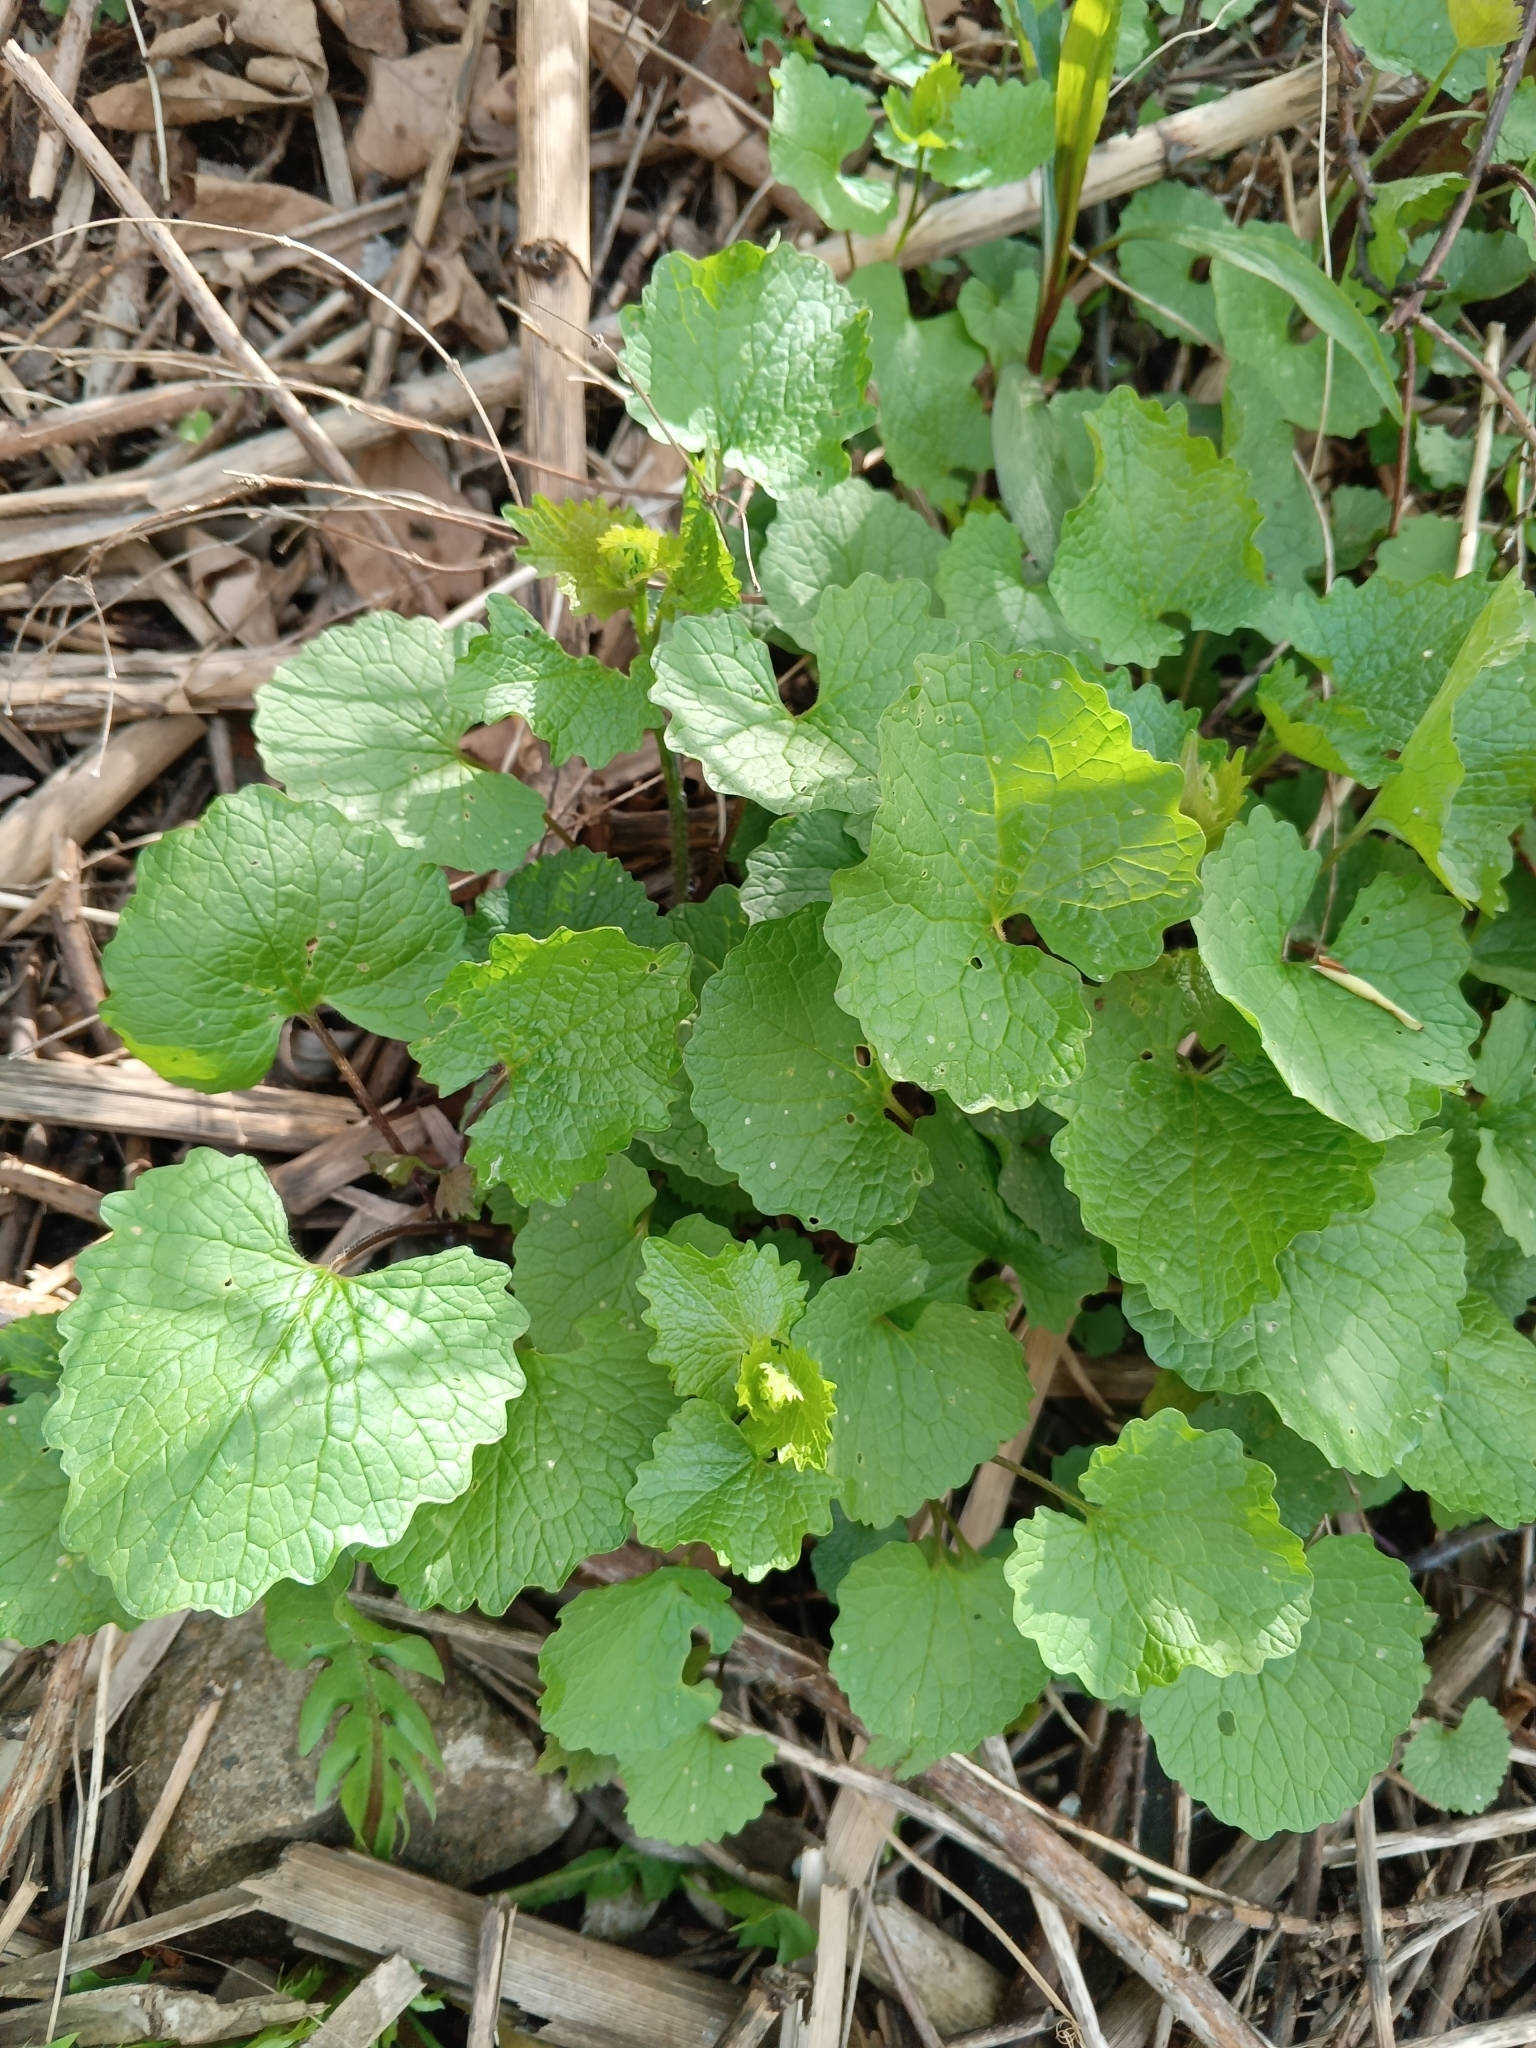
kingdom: Plantae
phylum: Tracheophyta
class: Magnoliopsida
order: Brassicales
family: Brassicaceae
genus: Alliaria
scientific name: Alliaria petiolata
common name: Garlic mustard
